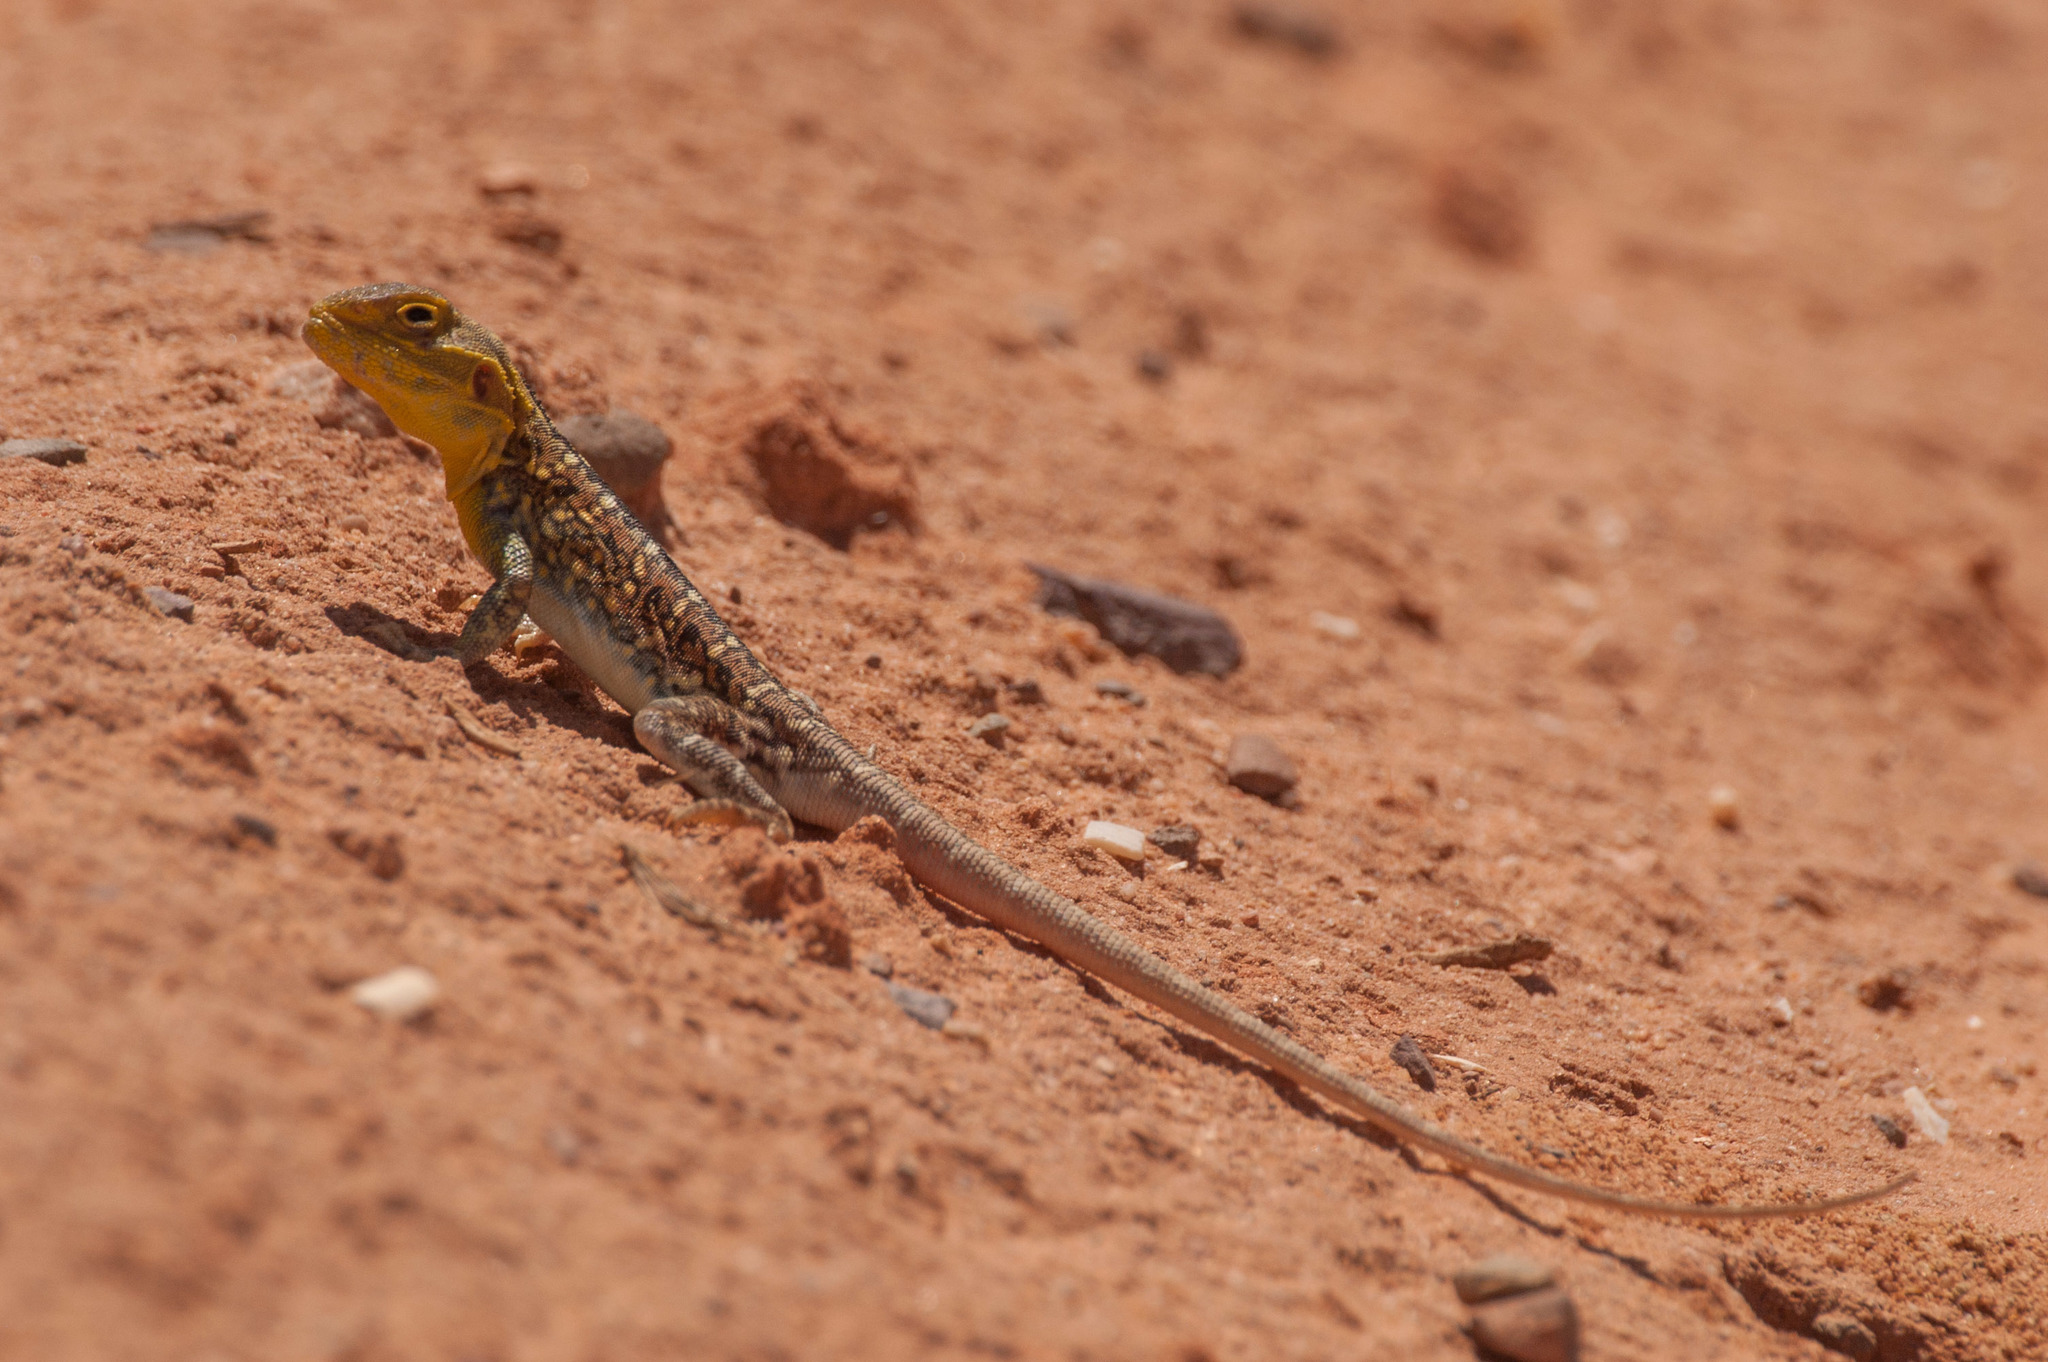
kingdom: Animalia
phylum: Chordata
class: Squamata
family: Agamidae
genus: Ctenophorus
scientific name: Ctenophorus pictus
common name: Painted dragon
